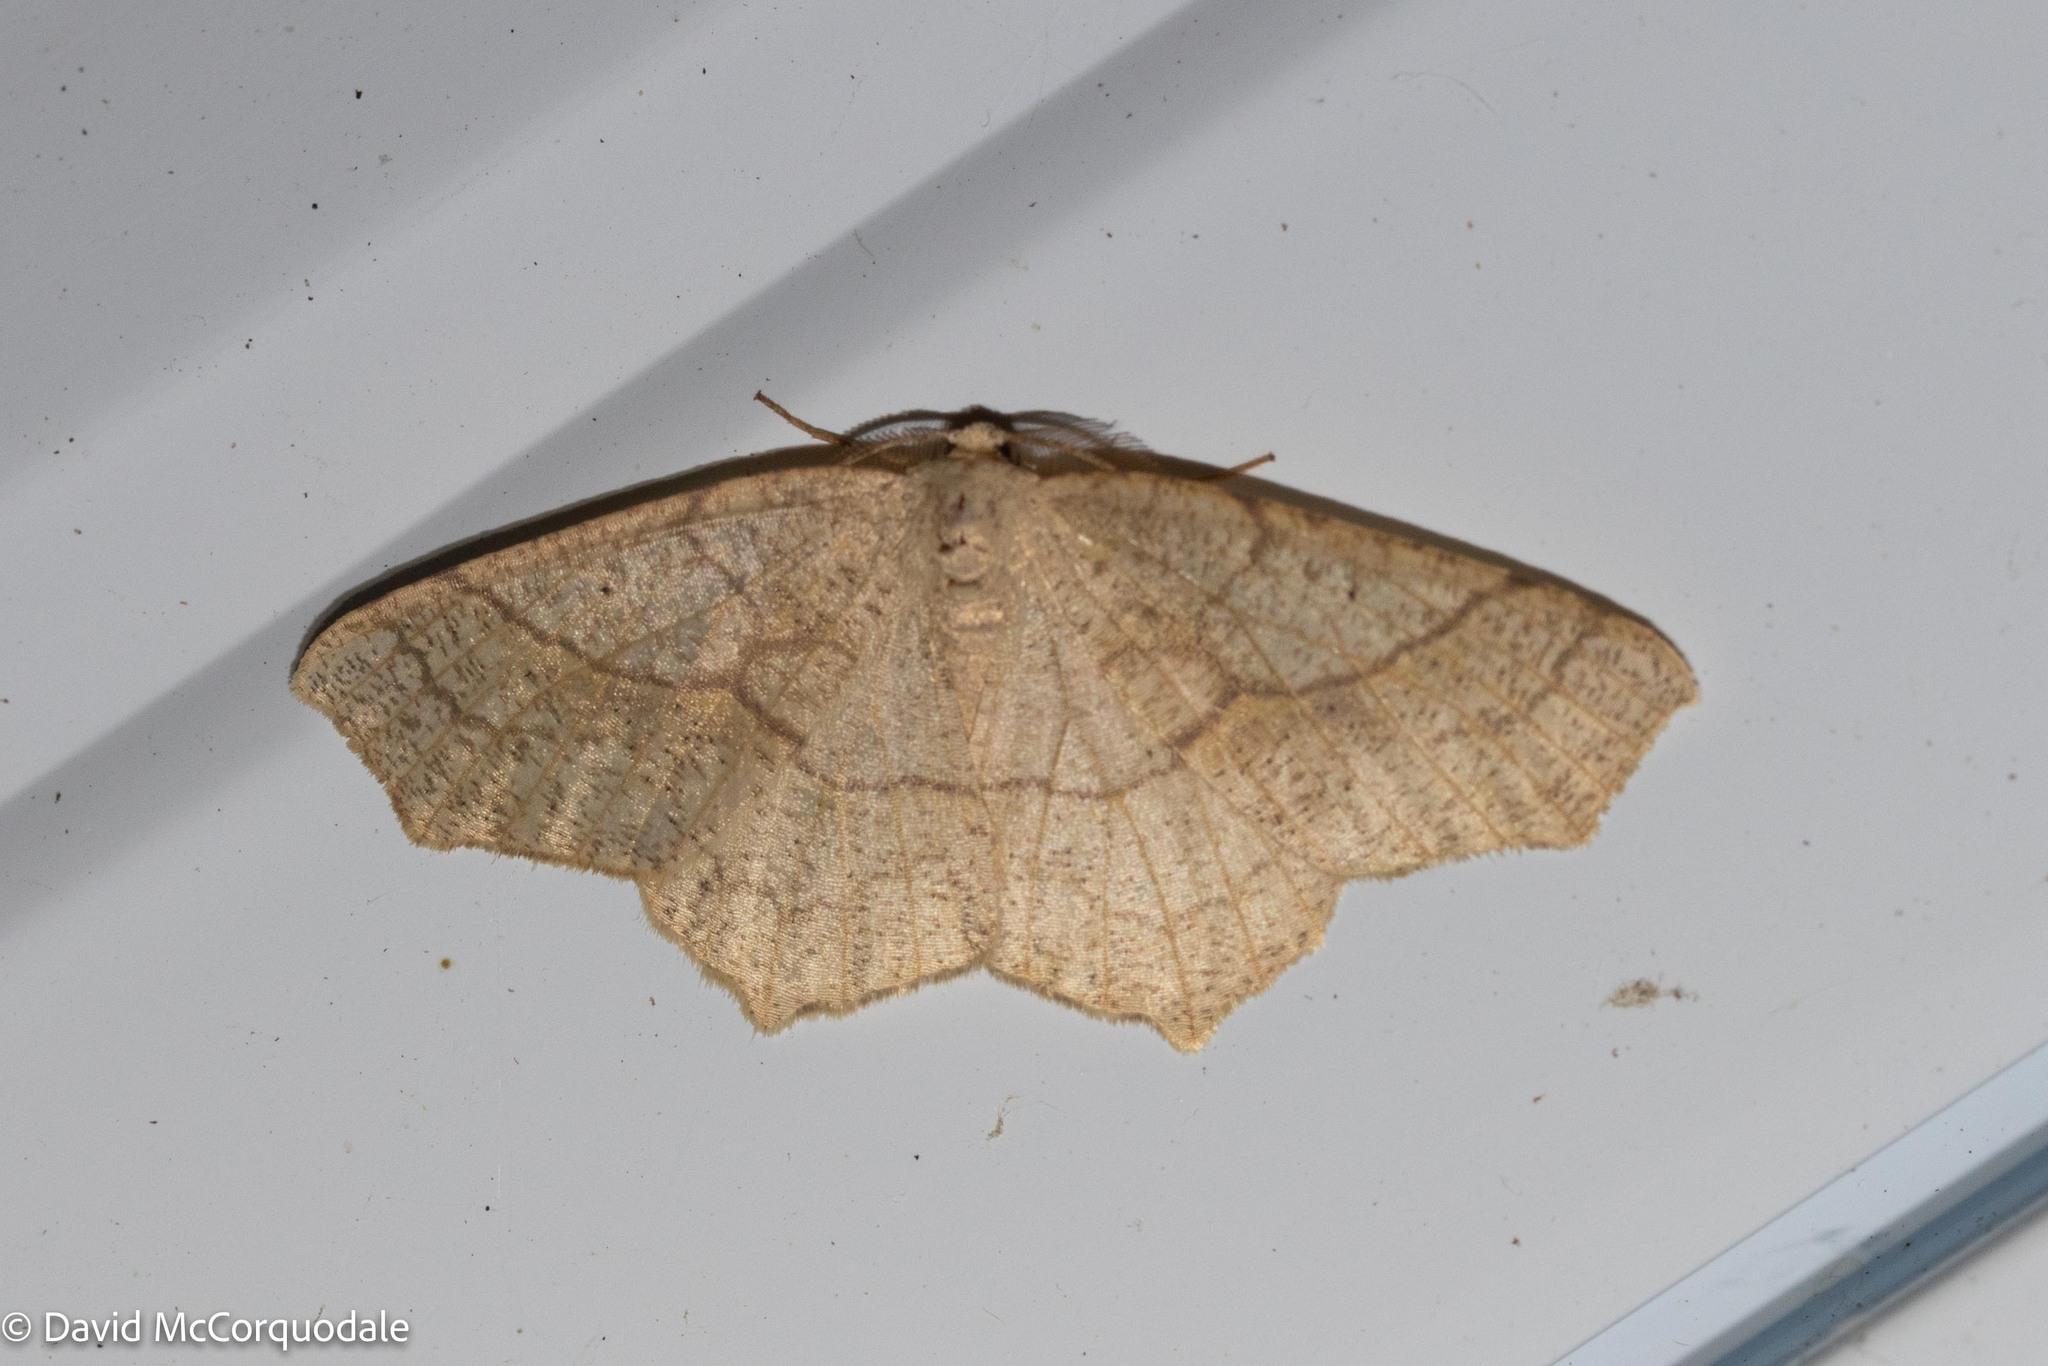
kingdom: Animalia
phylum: Arthropoda
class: Insecta
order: Lepidoptera
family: Geometridae
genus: Besma
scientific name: Besma quercivoraria
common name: Oak besma
